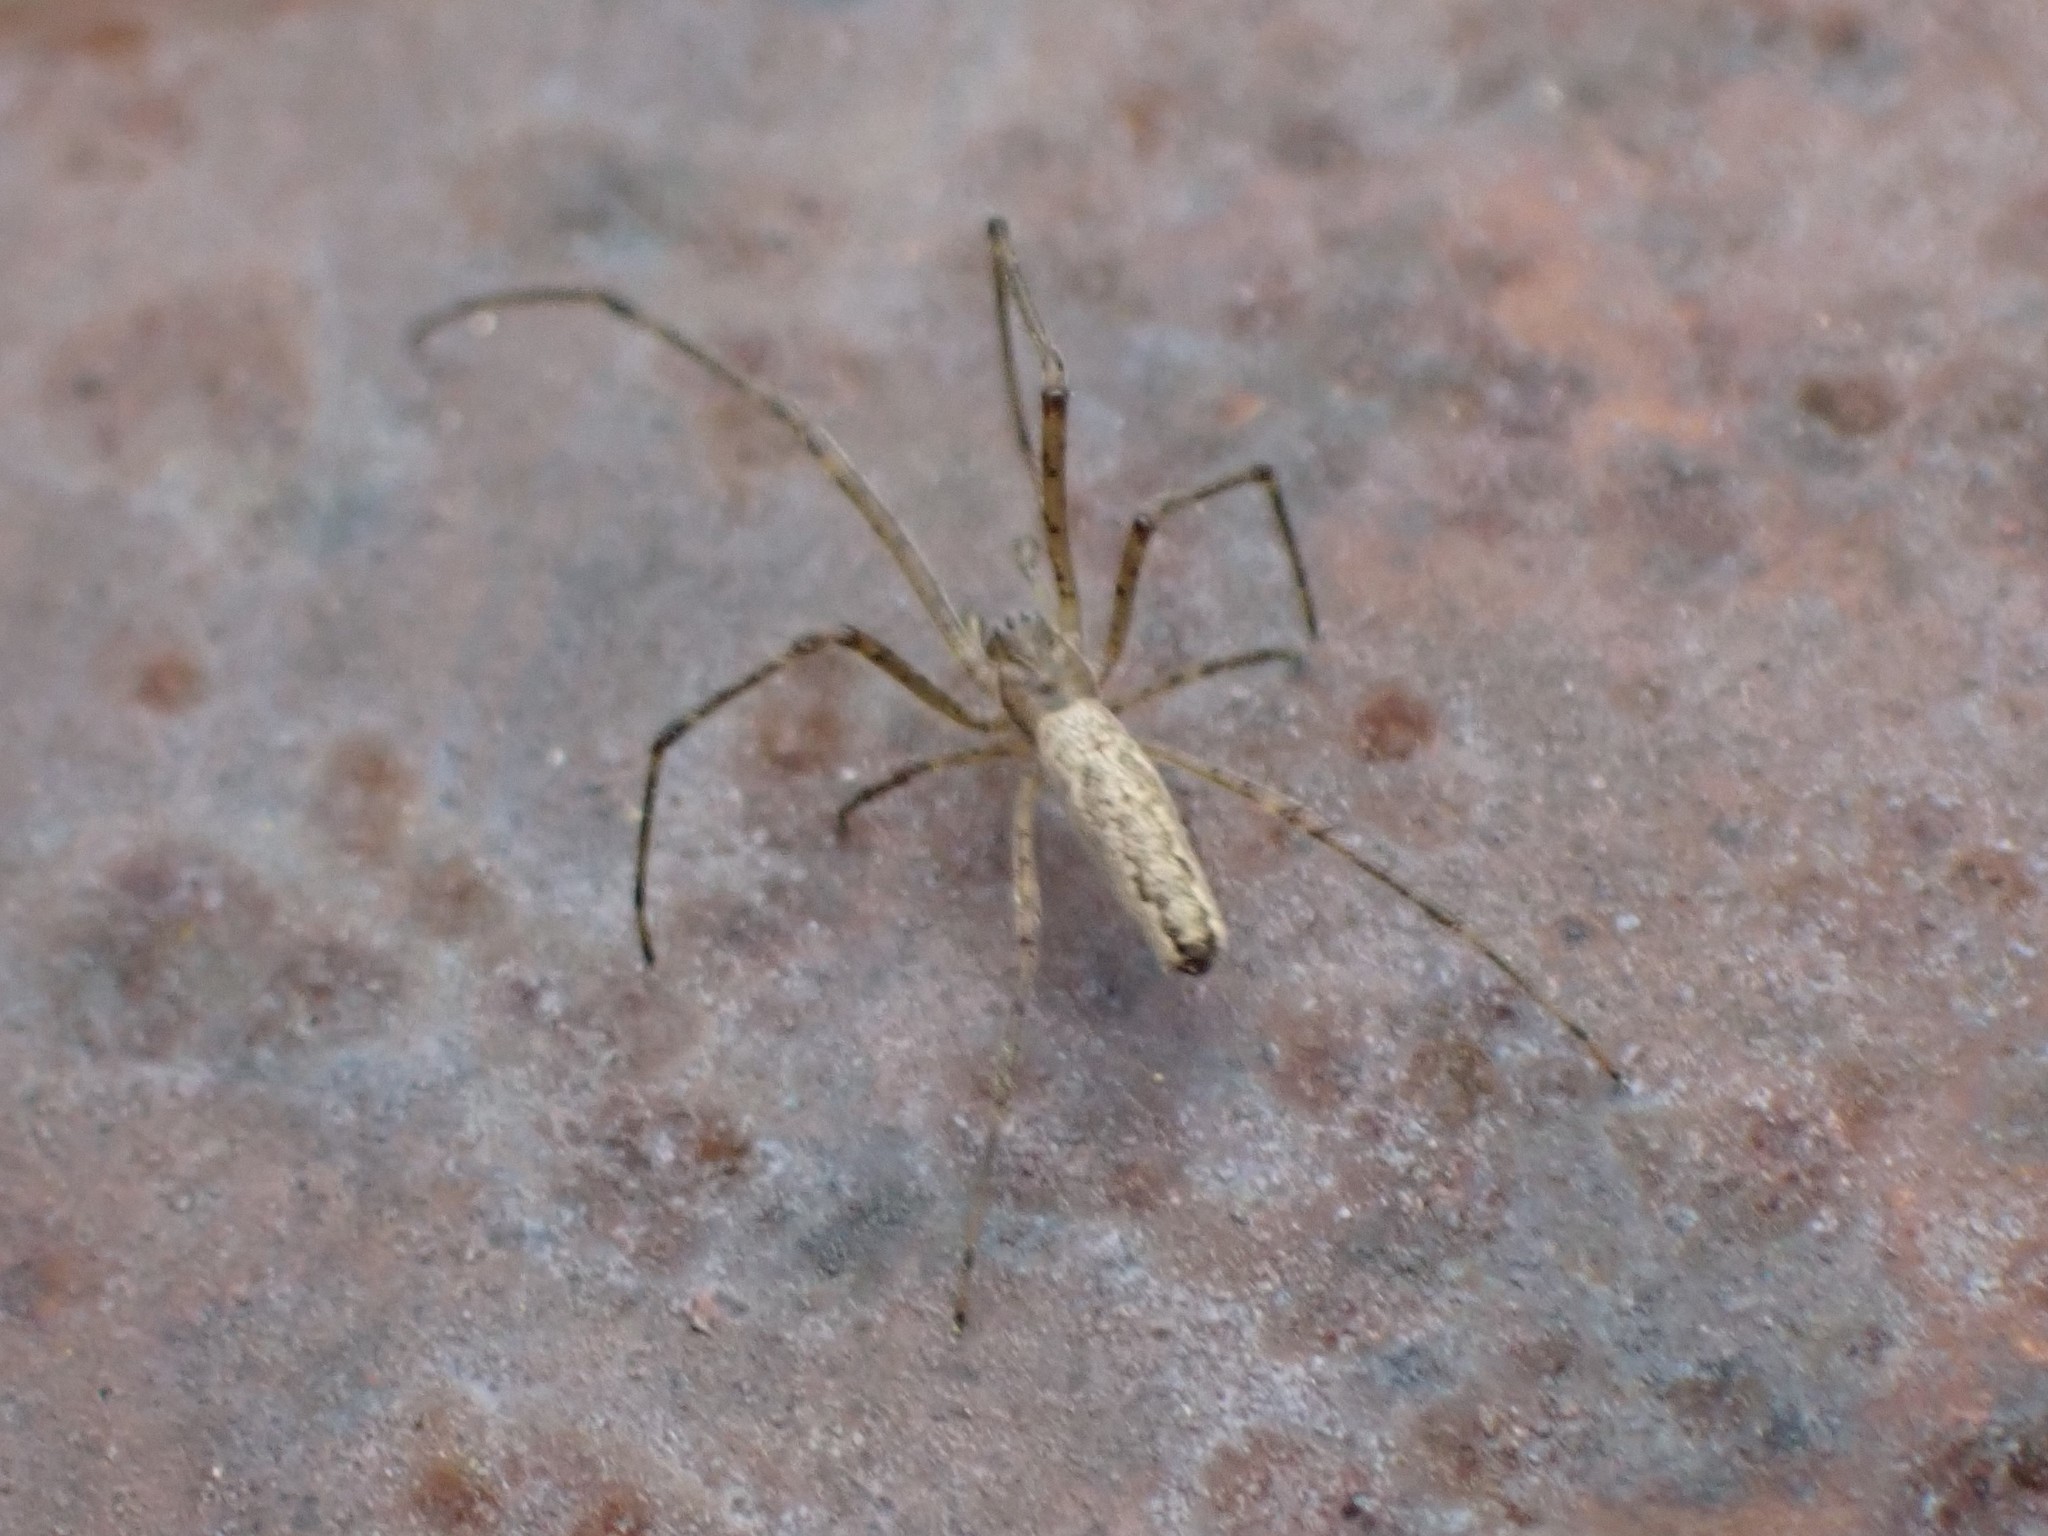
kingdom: Animalia
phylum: Arthropoda
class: Arachnida
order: Araneae
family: Tetragnathidae
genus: Tetragnatha
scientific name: Tetragnatha
